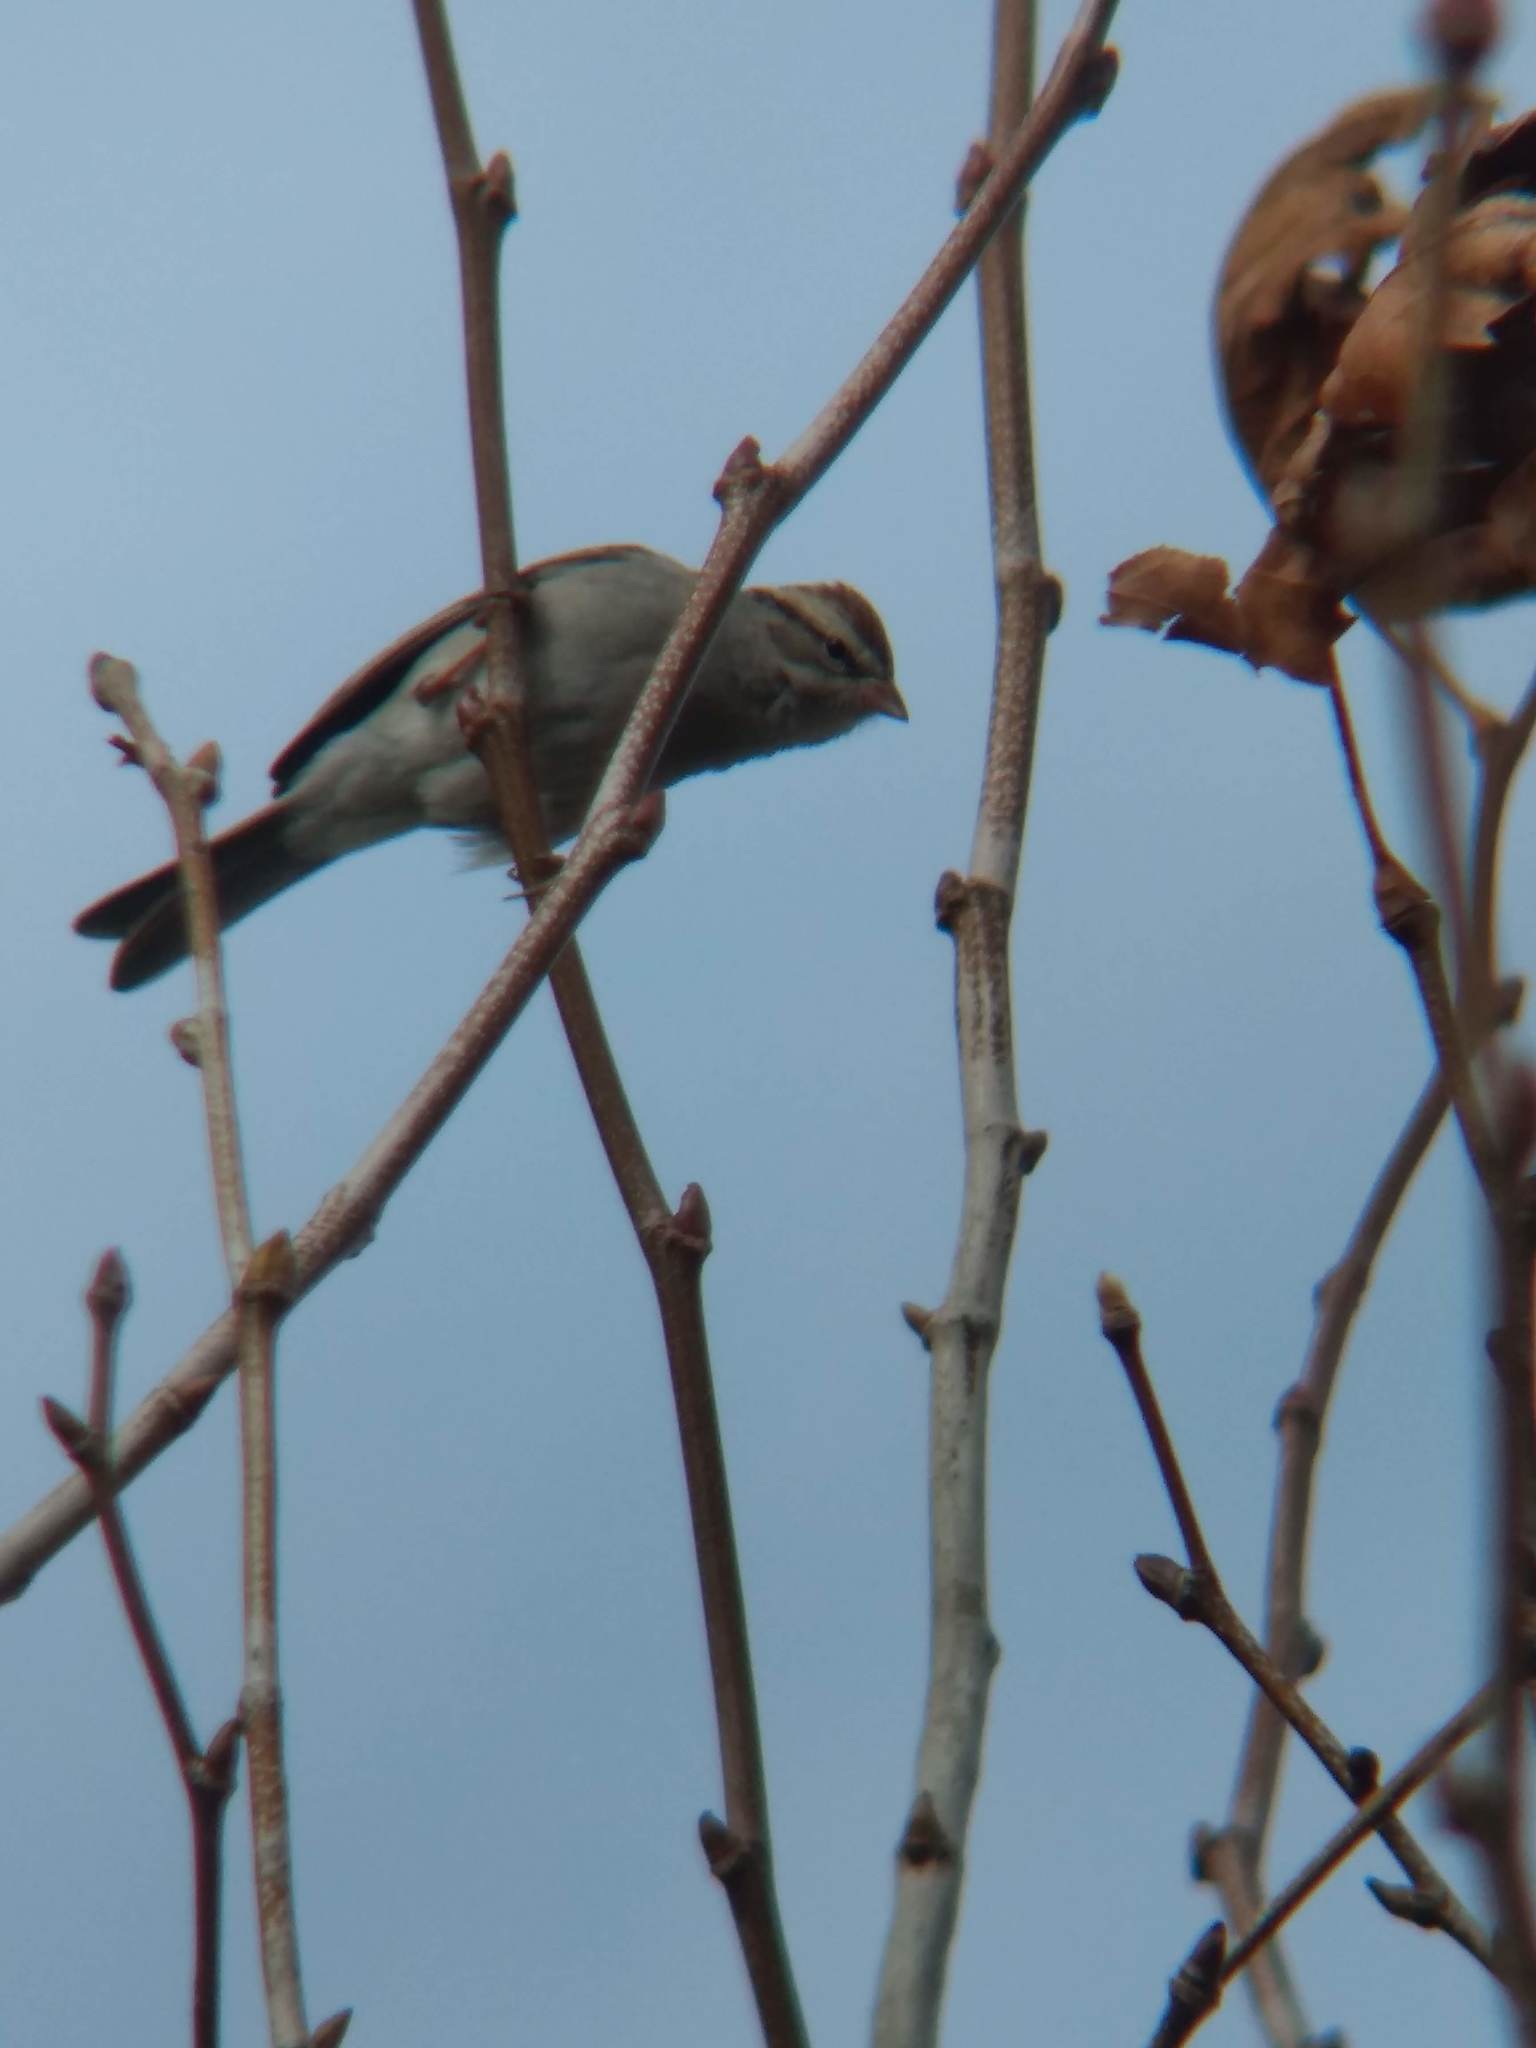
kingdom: Animalia
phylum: Chordata
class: Aves
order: Passeriformes
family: Passerellidae
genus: Spizella
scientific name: Spizella passerina
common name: Chipping sparrow
